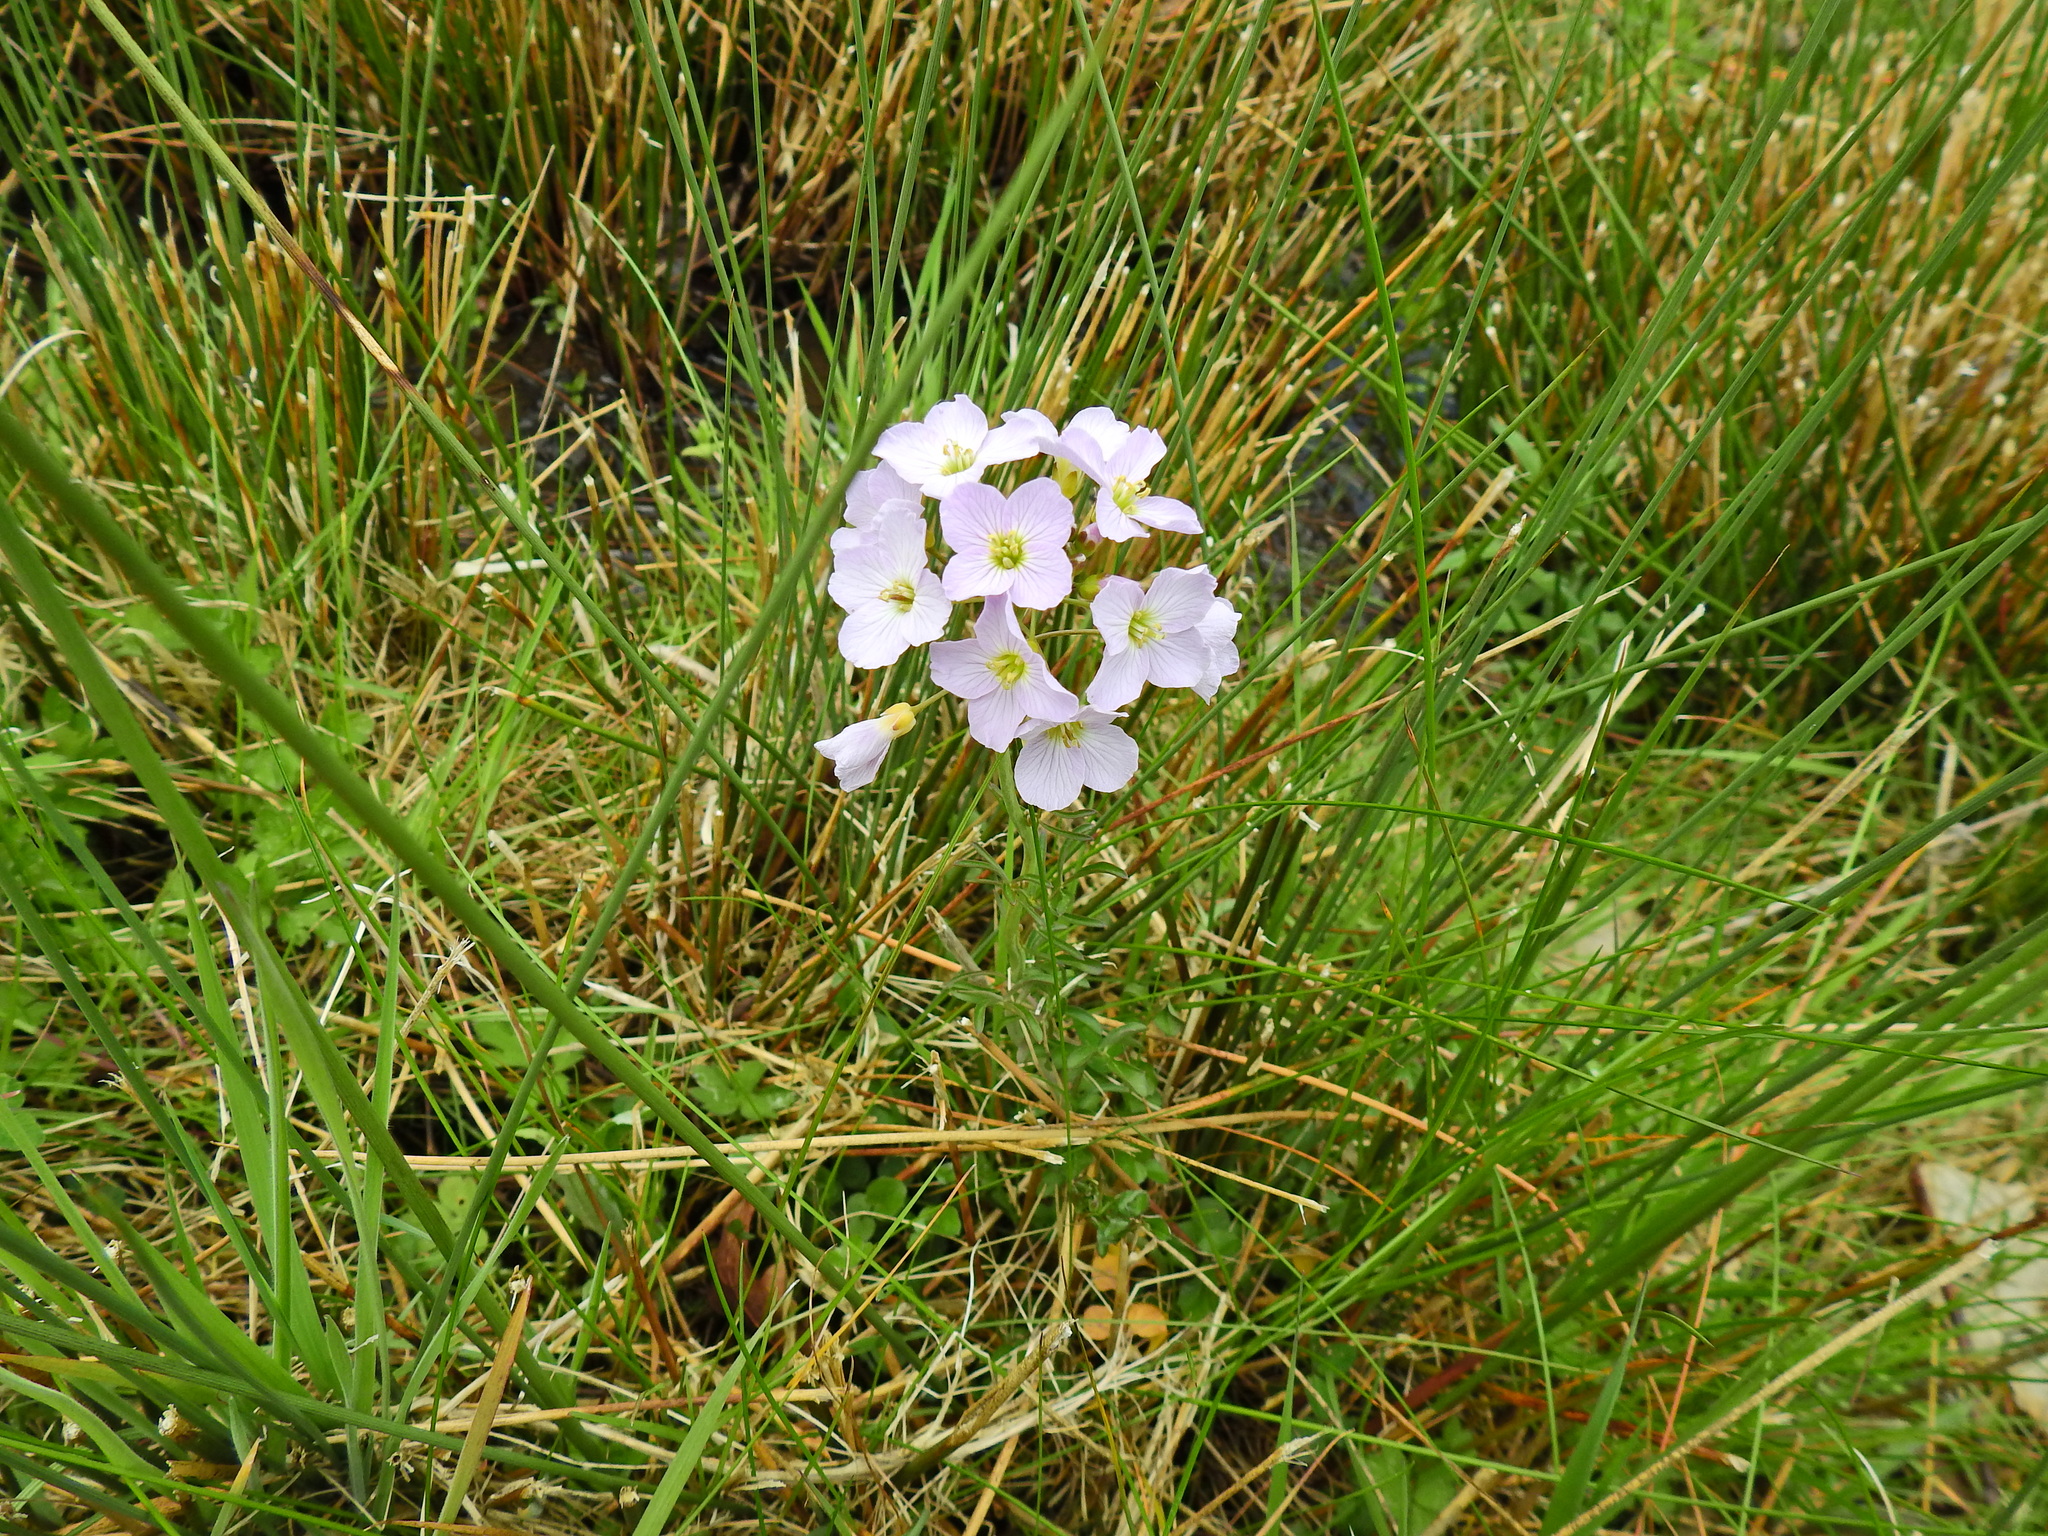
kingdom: Plantae
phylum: Tracheophyta
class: Magnoliopsida
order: Brassicales
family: Brassicaceae
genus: Cardamine
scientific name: Cardamine pratensis
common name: Cuckoo flower
